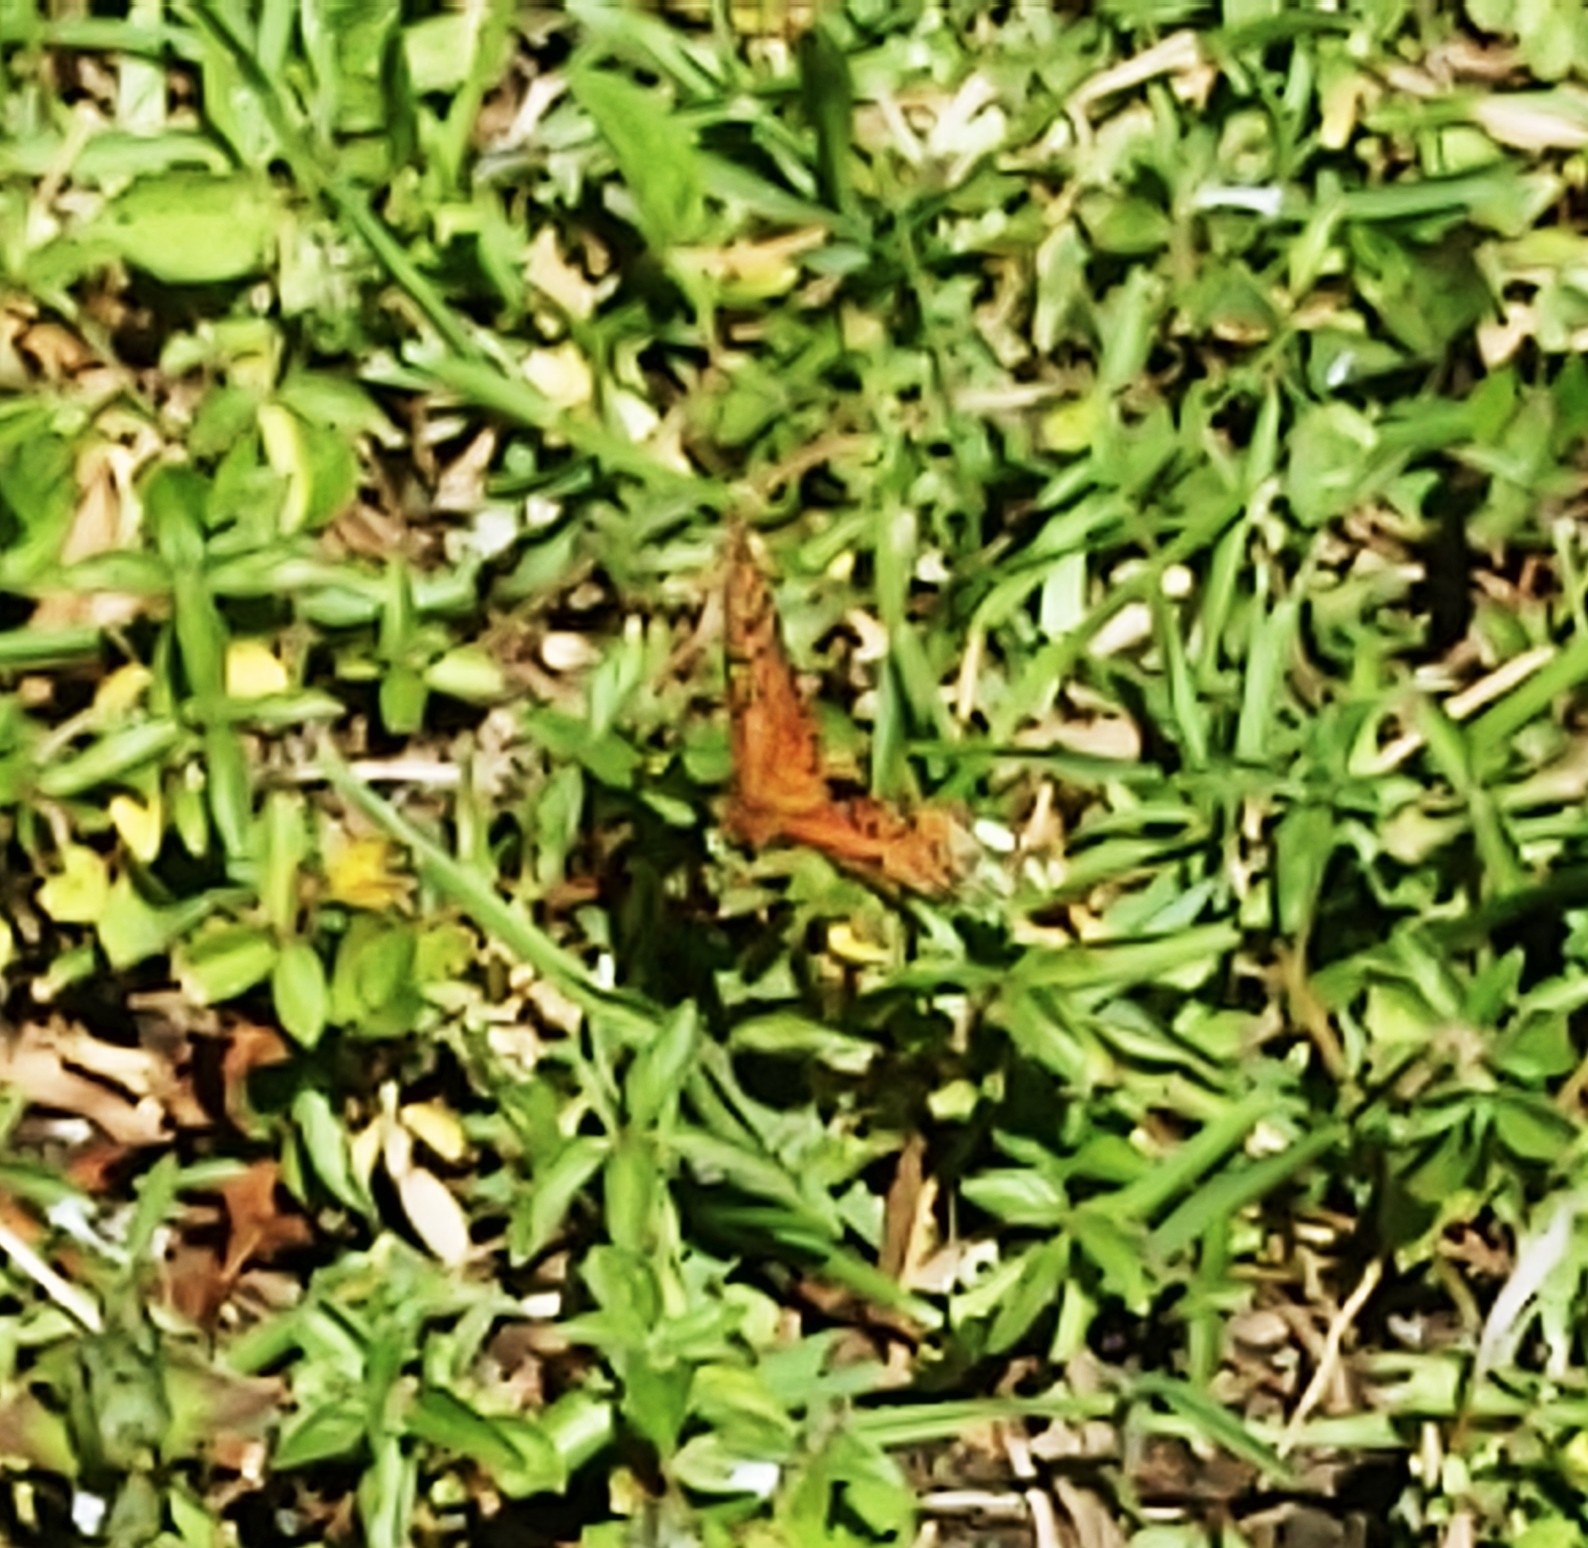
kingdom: Animalia
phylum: Arthropoda
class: Insecta
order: Lepidoptera
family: Nymphalidae
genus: Dione
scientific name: Dione vanillae
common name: Gulf fritillary
